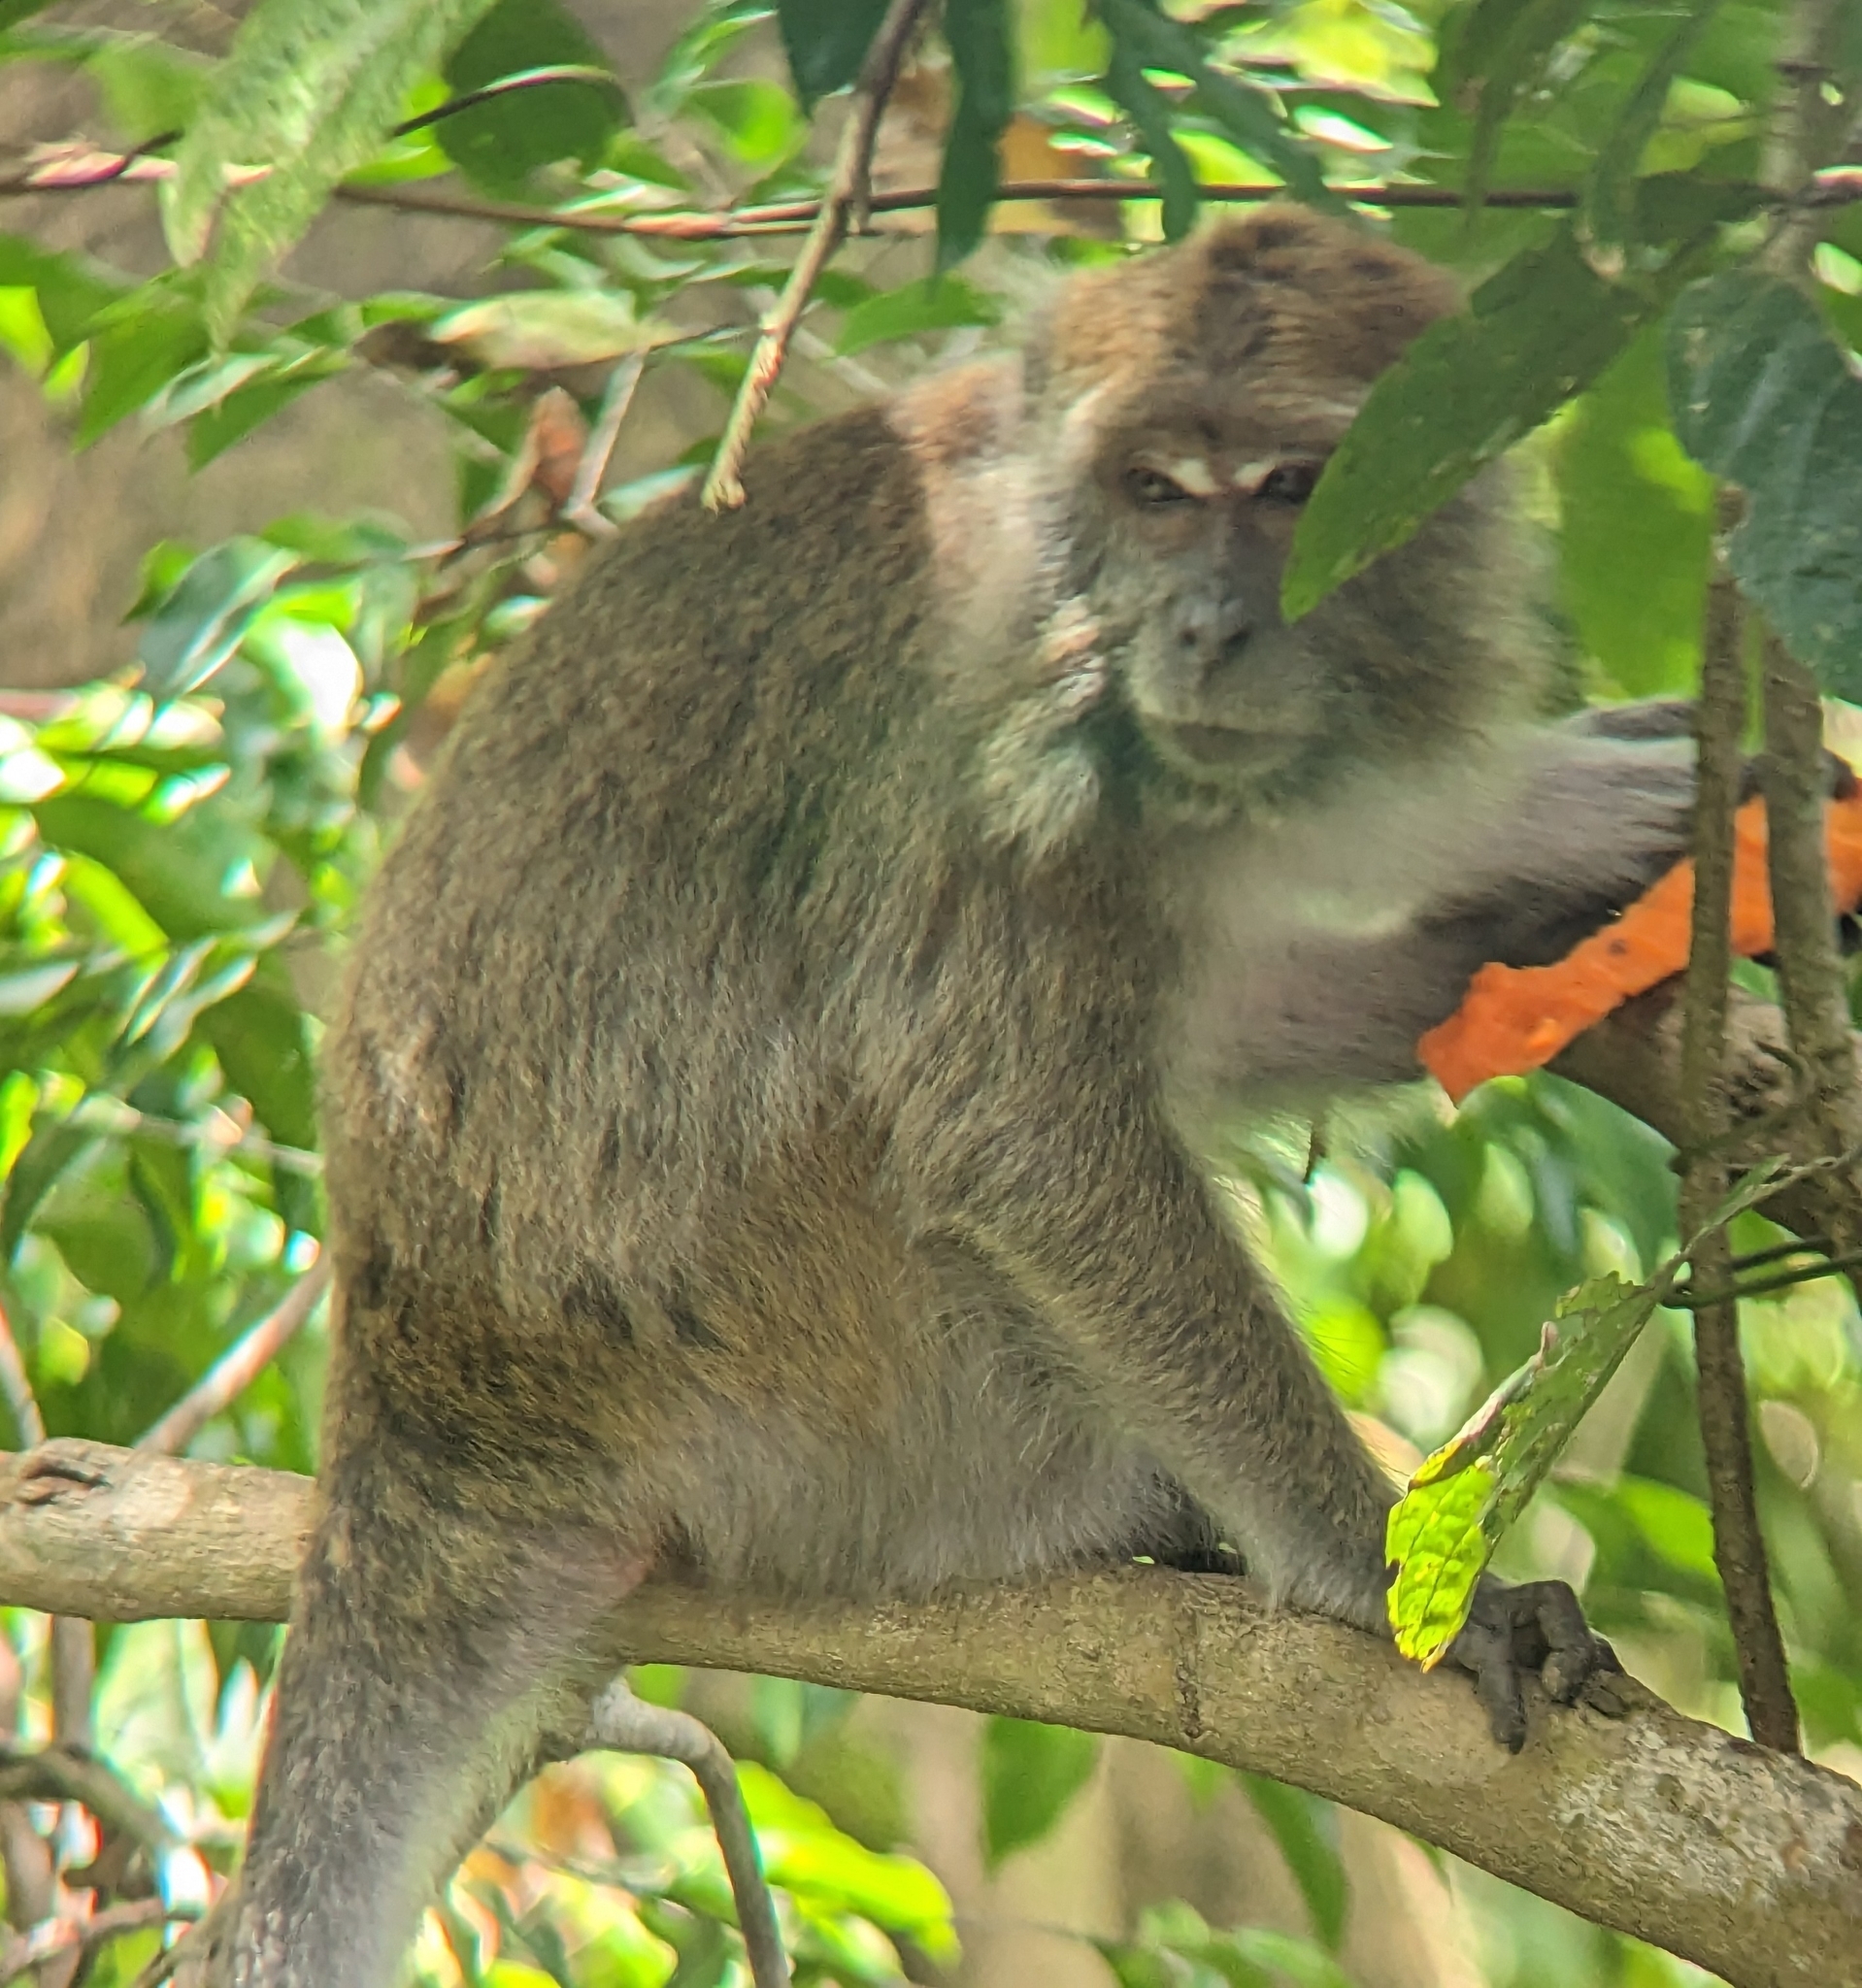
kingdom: Animalia
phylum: Chordata
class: Mammalia
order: Primates
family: Cercopithecidae
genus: Macaca
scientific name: Macaca fascicularis
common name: Crab-eating macaque
